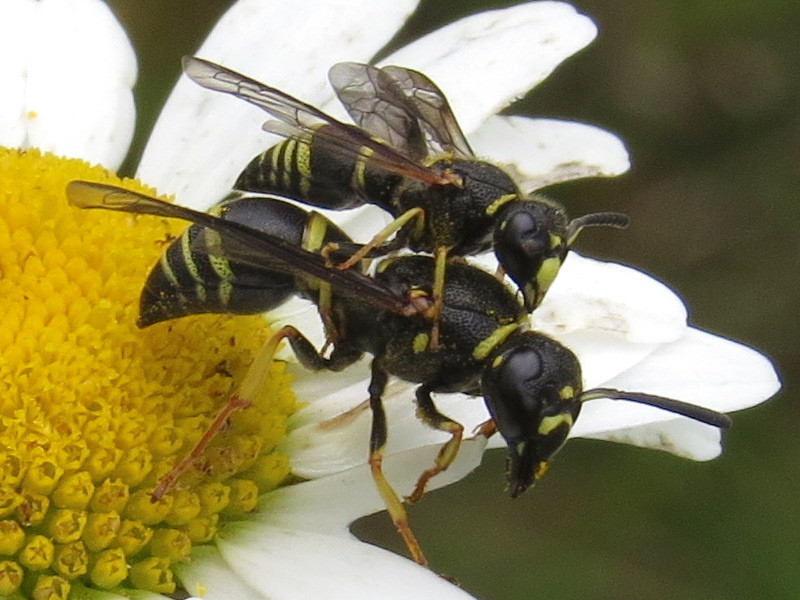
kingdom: Animalia
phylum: Arthropoda
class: Insecta
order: Hymenoptera
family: Eumenidae
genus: Euodynerus
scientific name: Euodynerus foraminatus
